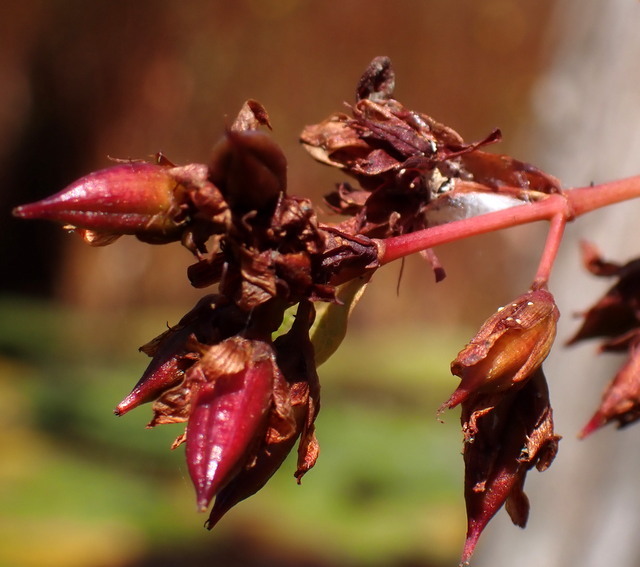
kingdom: Plantae
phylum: Tracheophyta
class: Magnoliopsida
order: Malpighiales
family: Hypericaceae
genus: Triadenum
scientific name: Triadenum virginicum
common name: Marsh st. john's-wort
